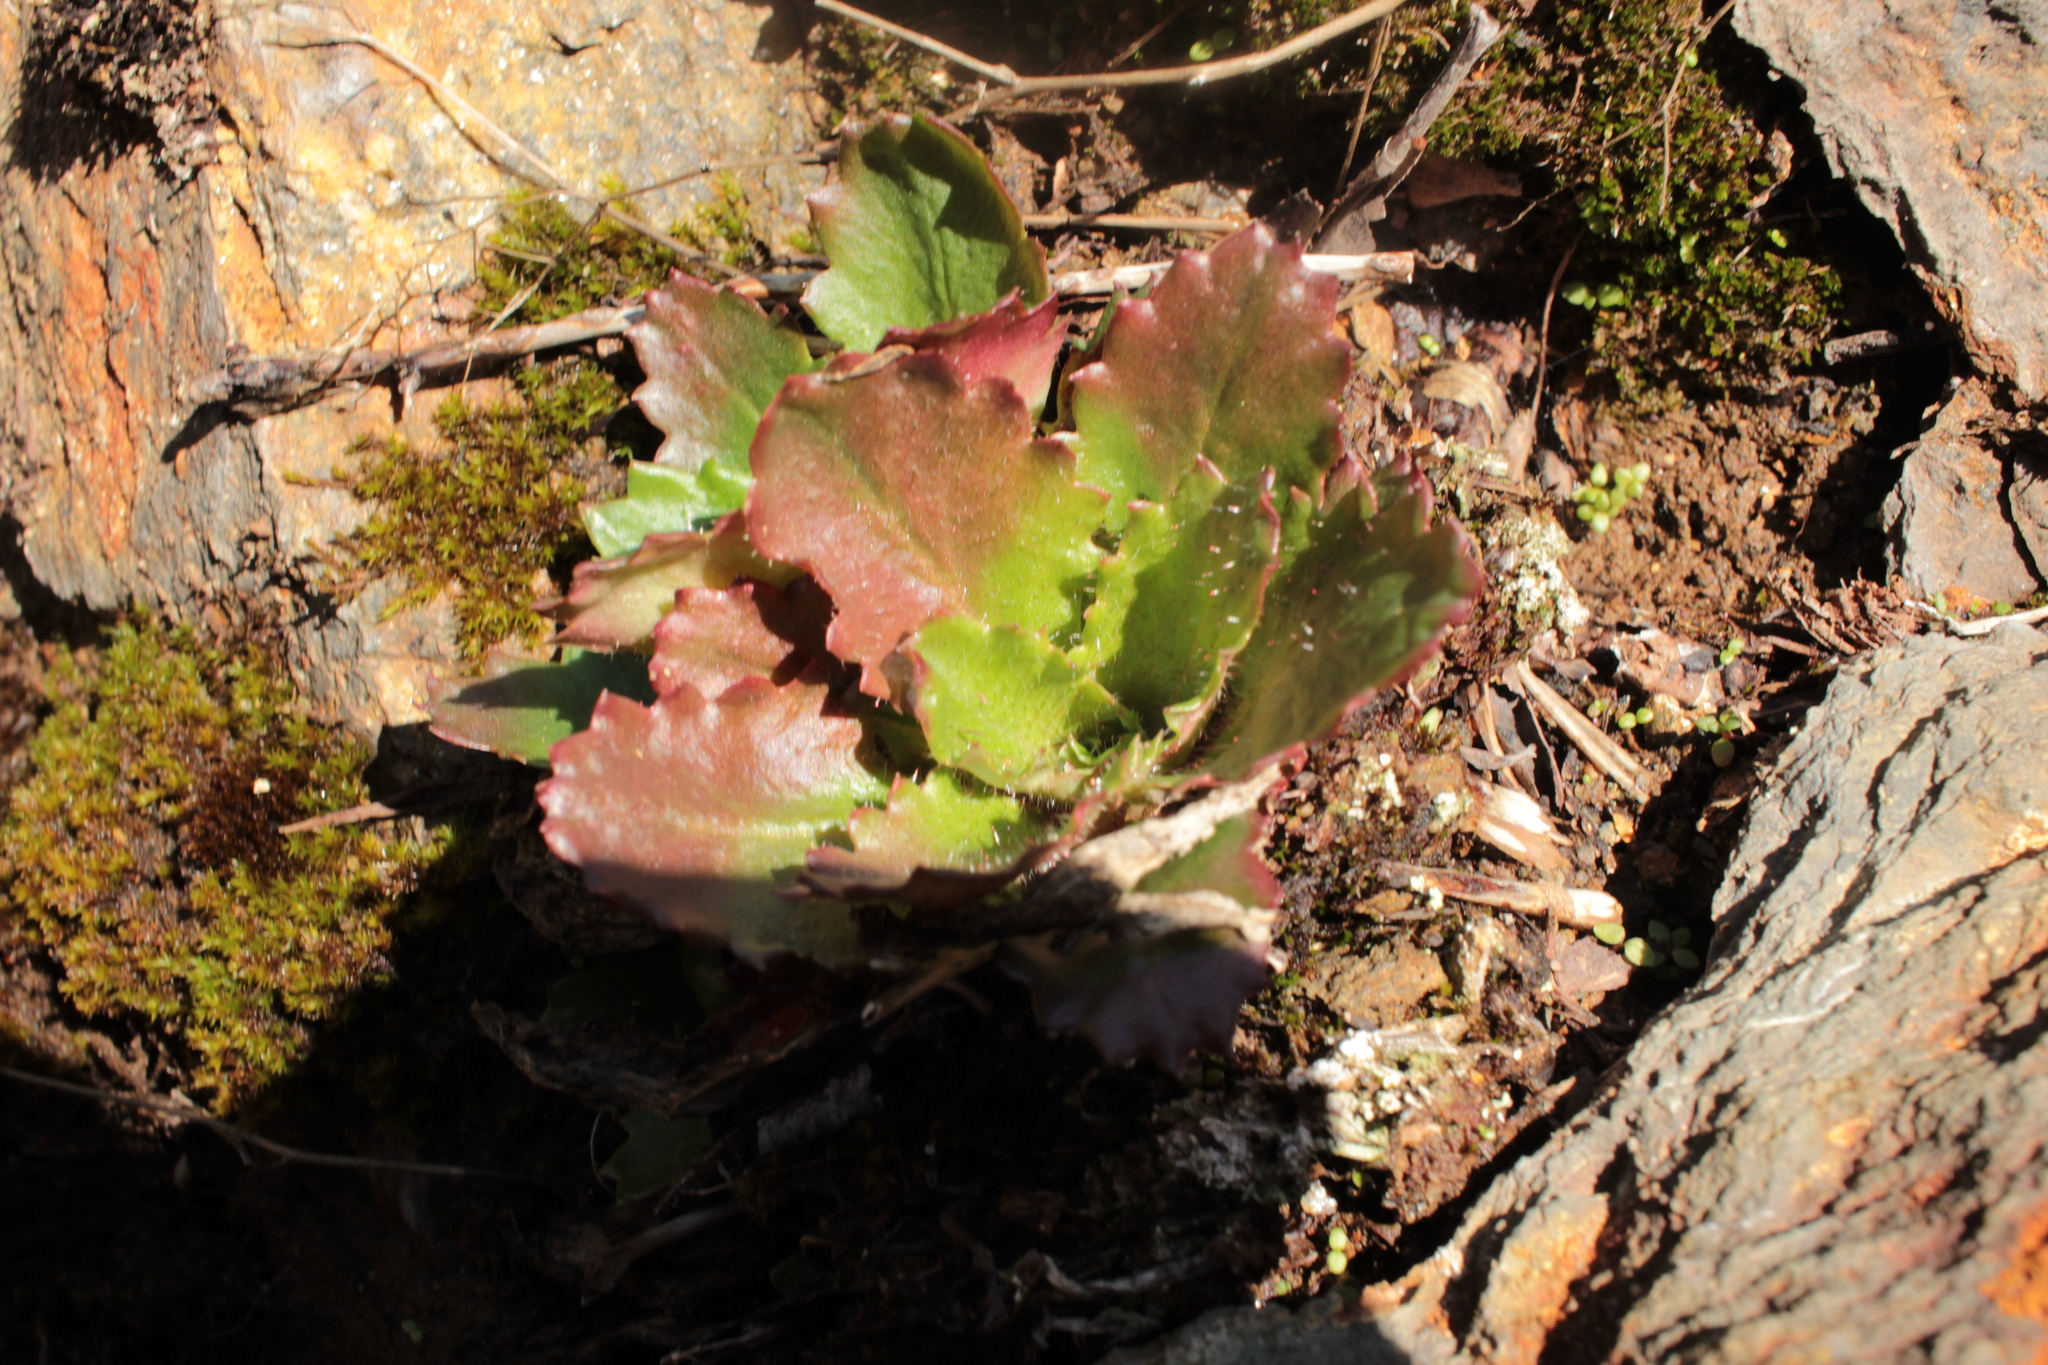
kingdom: Plantae
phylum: Tracheophyta
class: Magnoliopsida
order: Saxifragales
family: Saxifragaceae
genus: Micranthes
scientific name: Micranthes petiolaris
